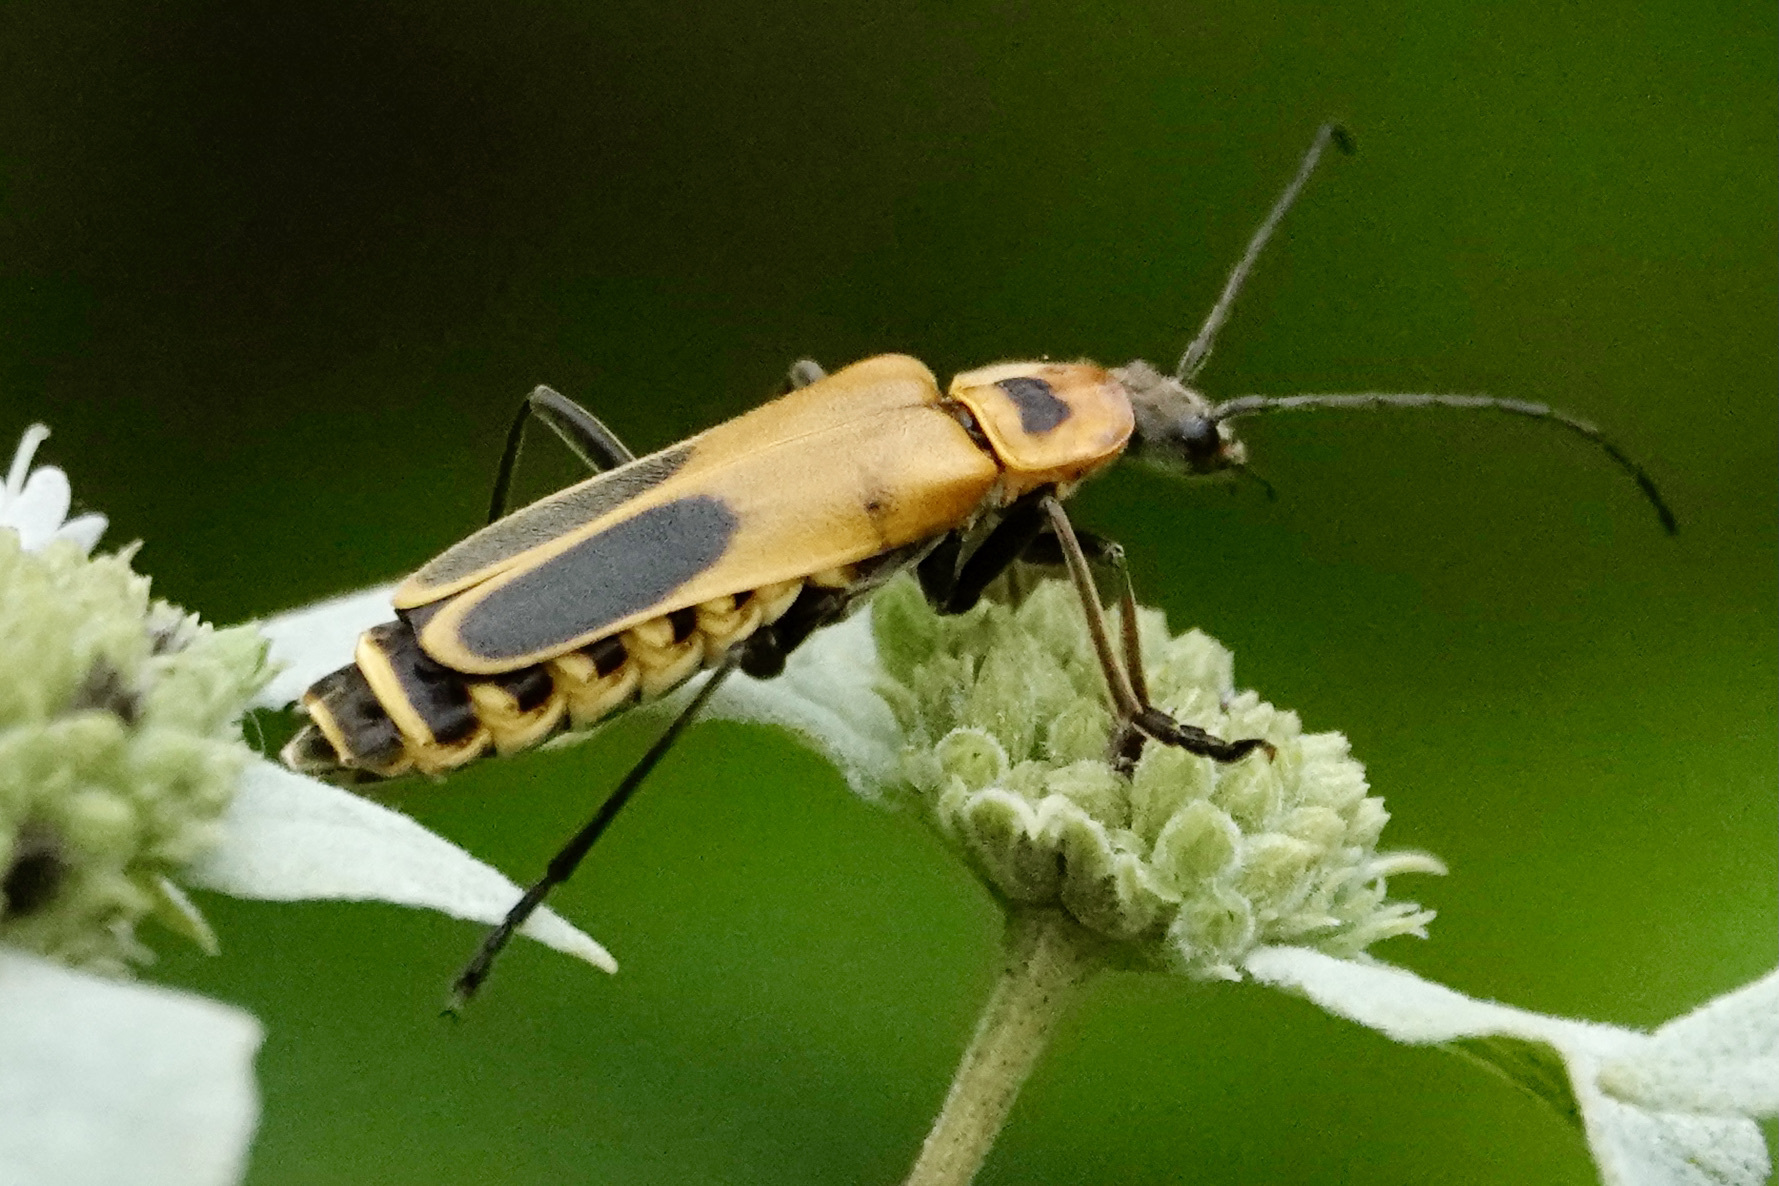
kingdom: Animalia
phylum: Arthropoda
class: Insecta
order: Coleoptera
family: Cantharidae
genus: Chauliognathus
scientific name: Chauliognathus pensylvanicus
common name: Goldenrod soldier beetle
